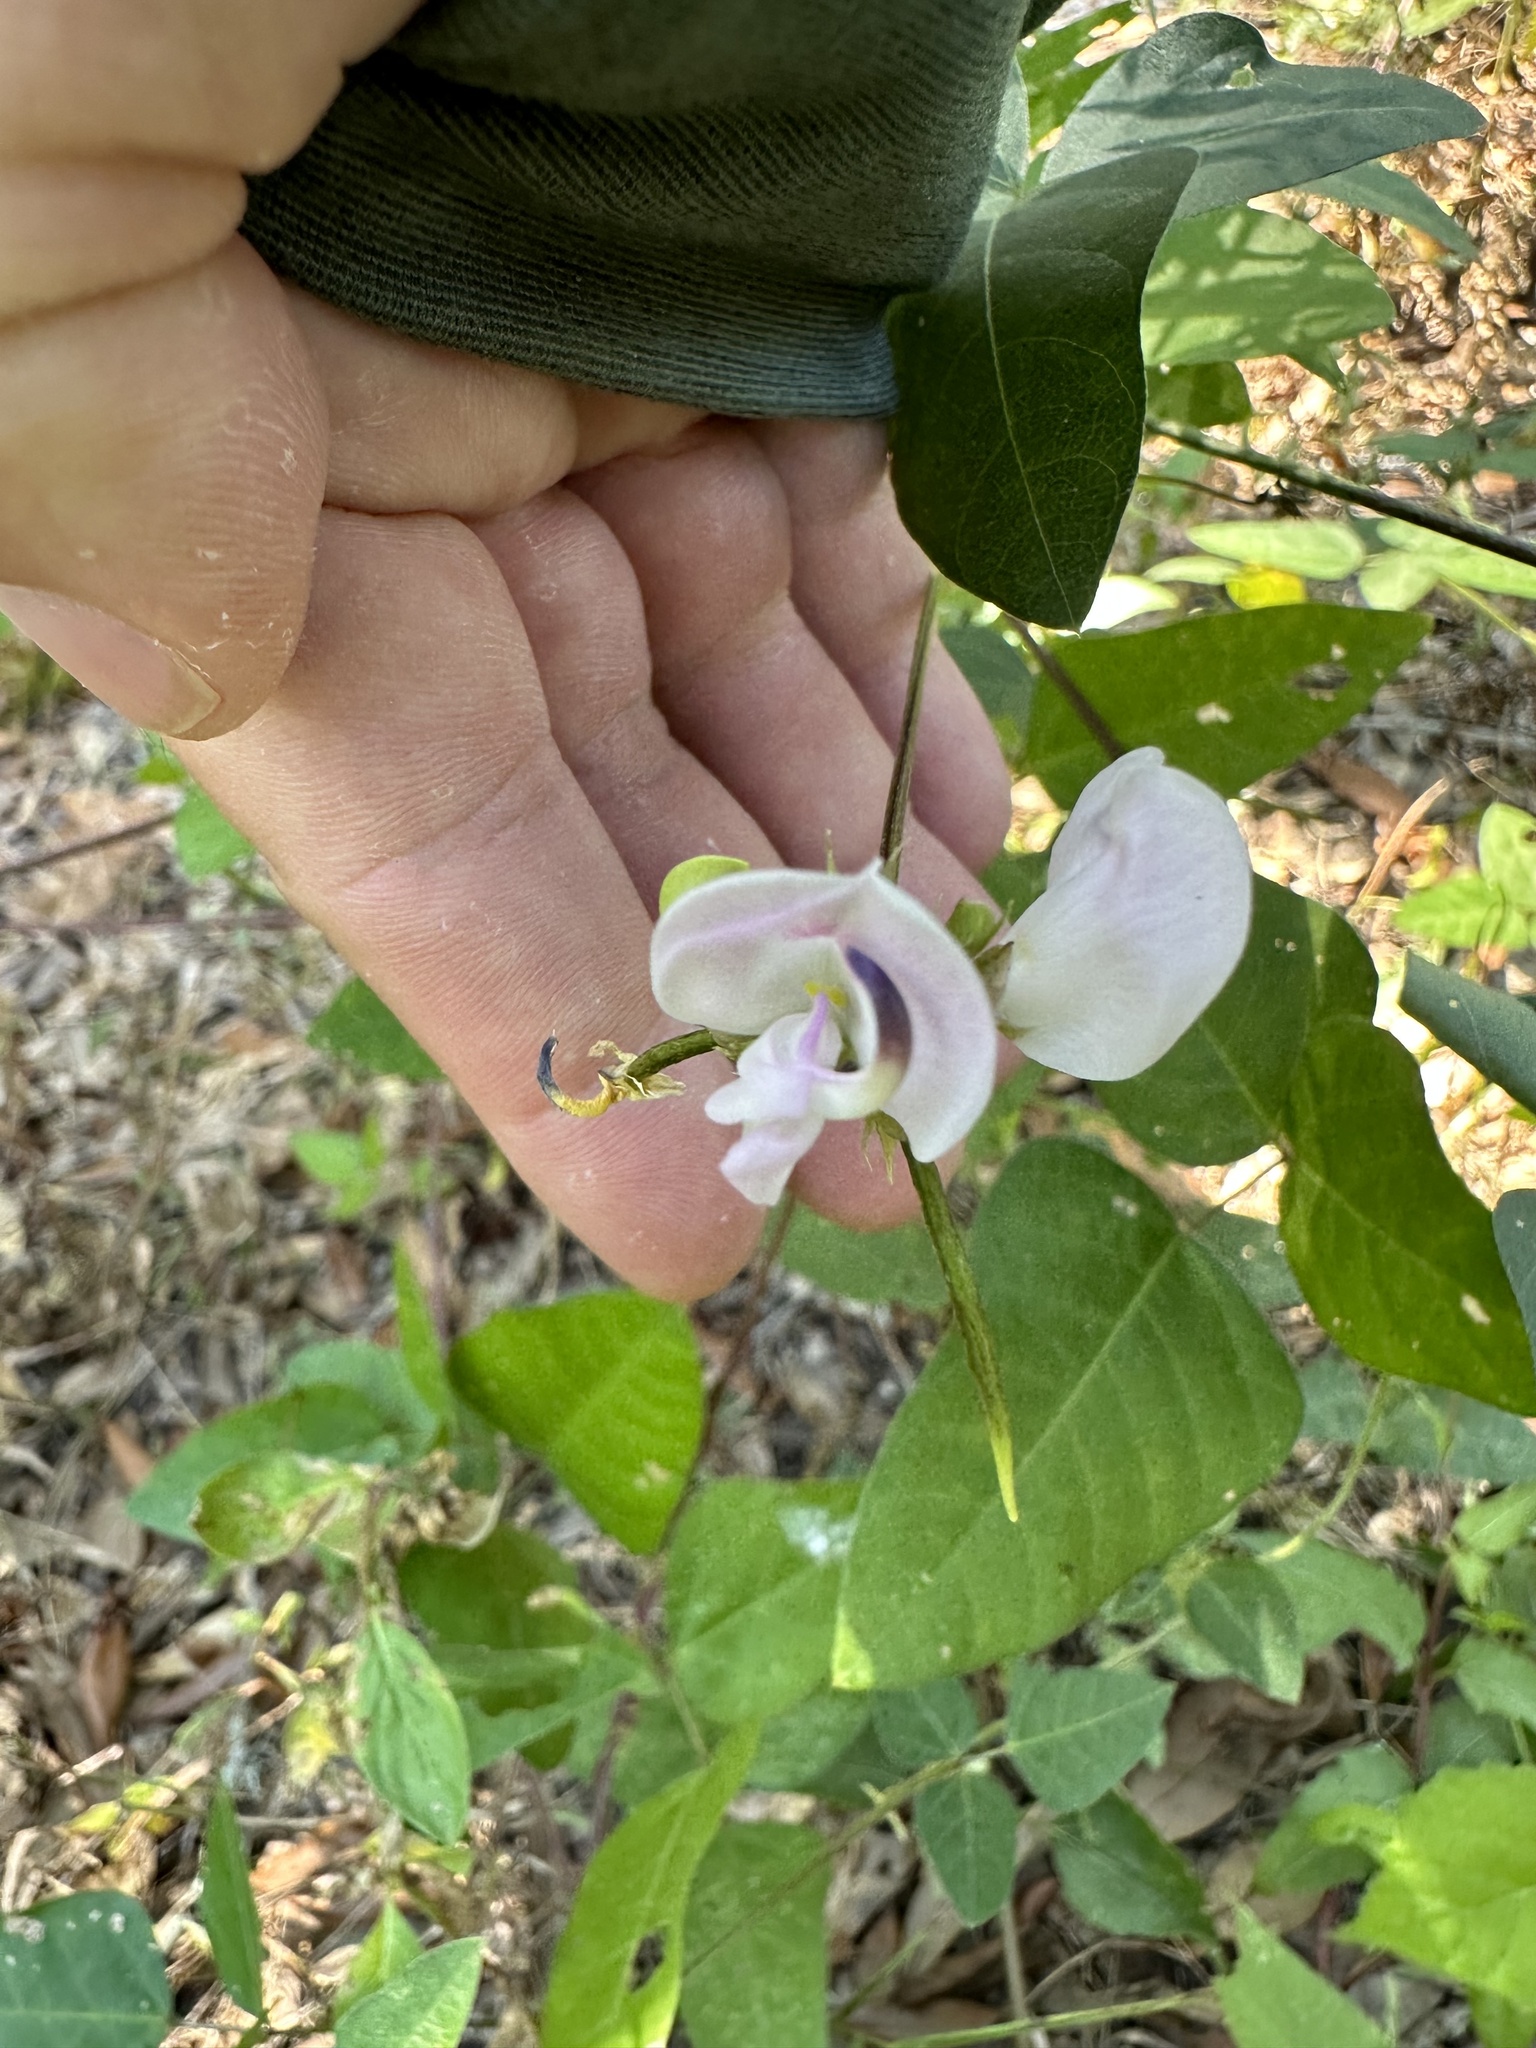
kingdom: Plantae
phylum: Tracheophyta
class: Magnoliopsida
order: Fabales
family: Fabaceae
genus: Strophostyles
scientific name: Strophostyles helvola
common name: Trailing wild bean
